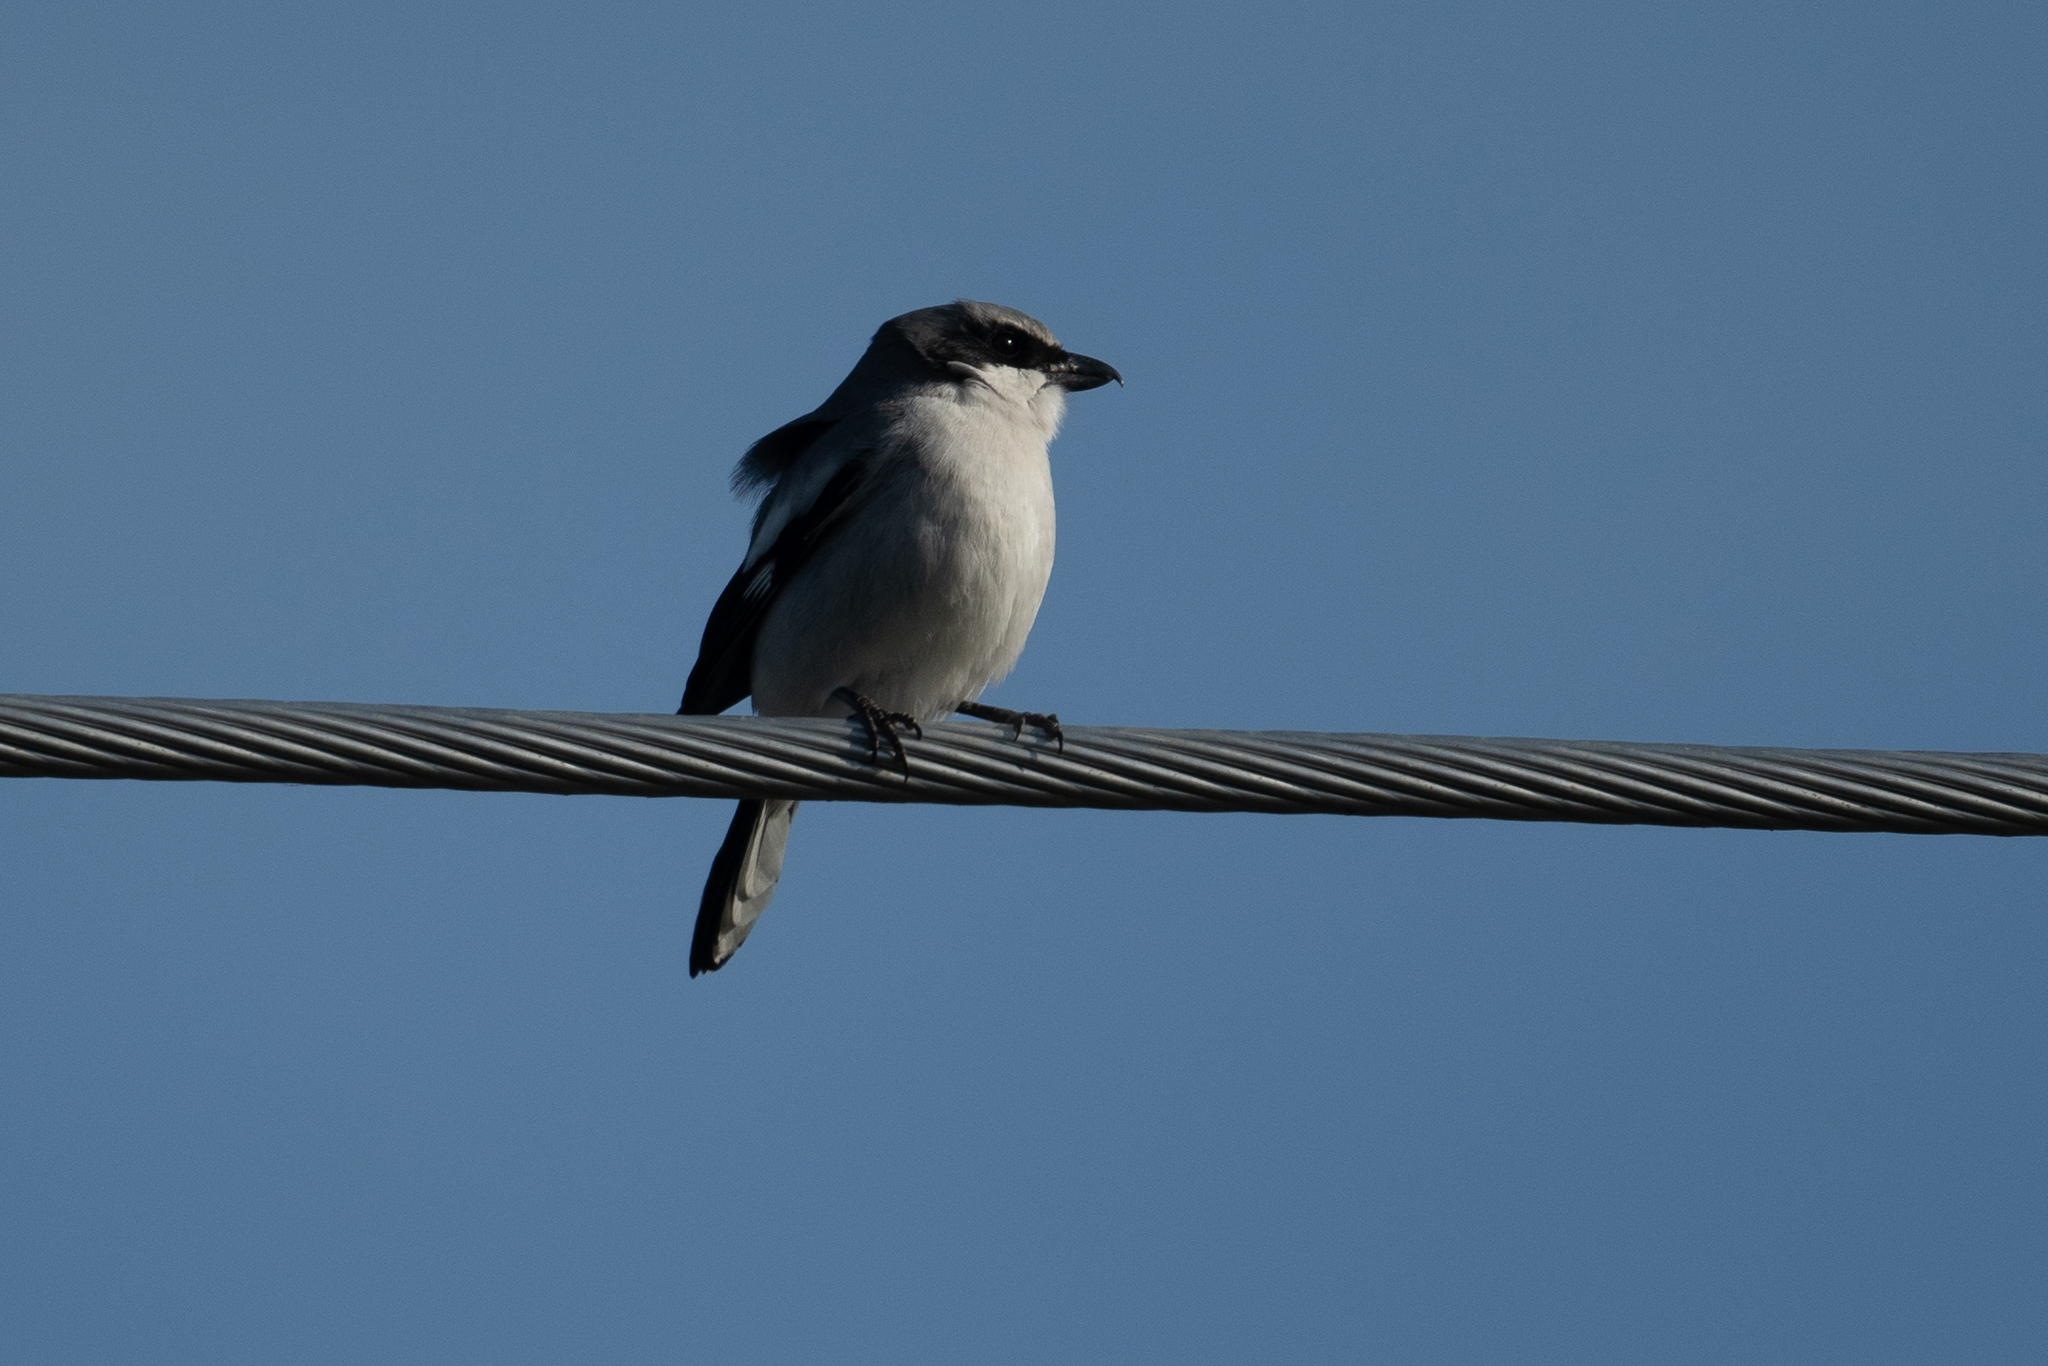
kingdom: Animalia
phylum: Chordata
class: Aves
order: Passeriformes
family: Laniidae
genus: Lanius
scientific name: Lanius ludovicianus
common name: Loggerhead shrike
